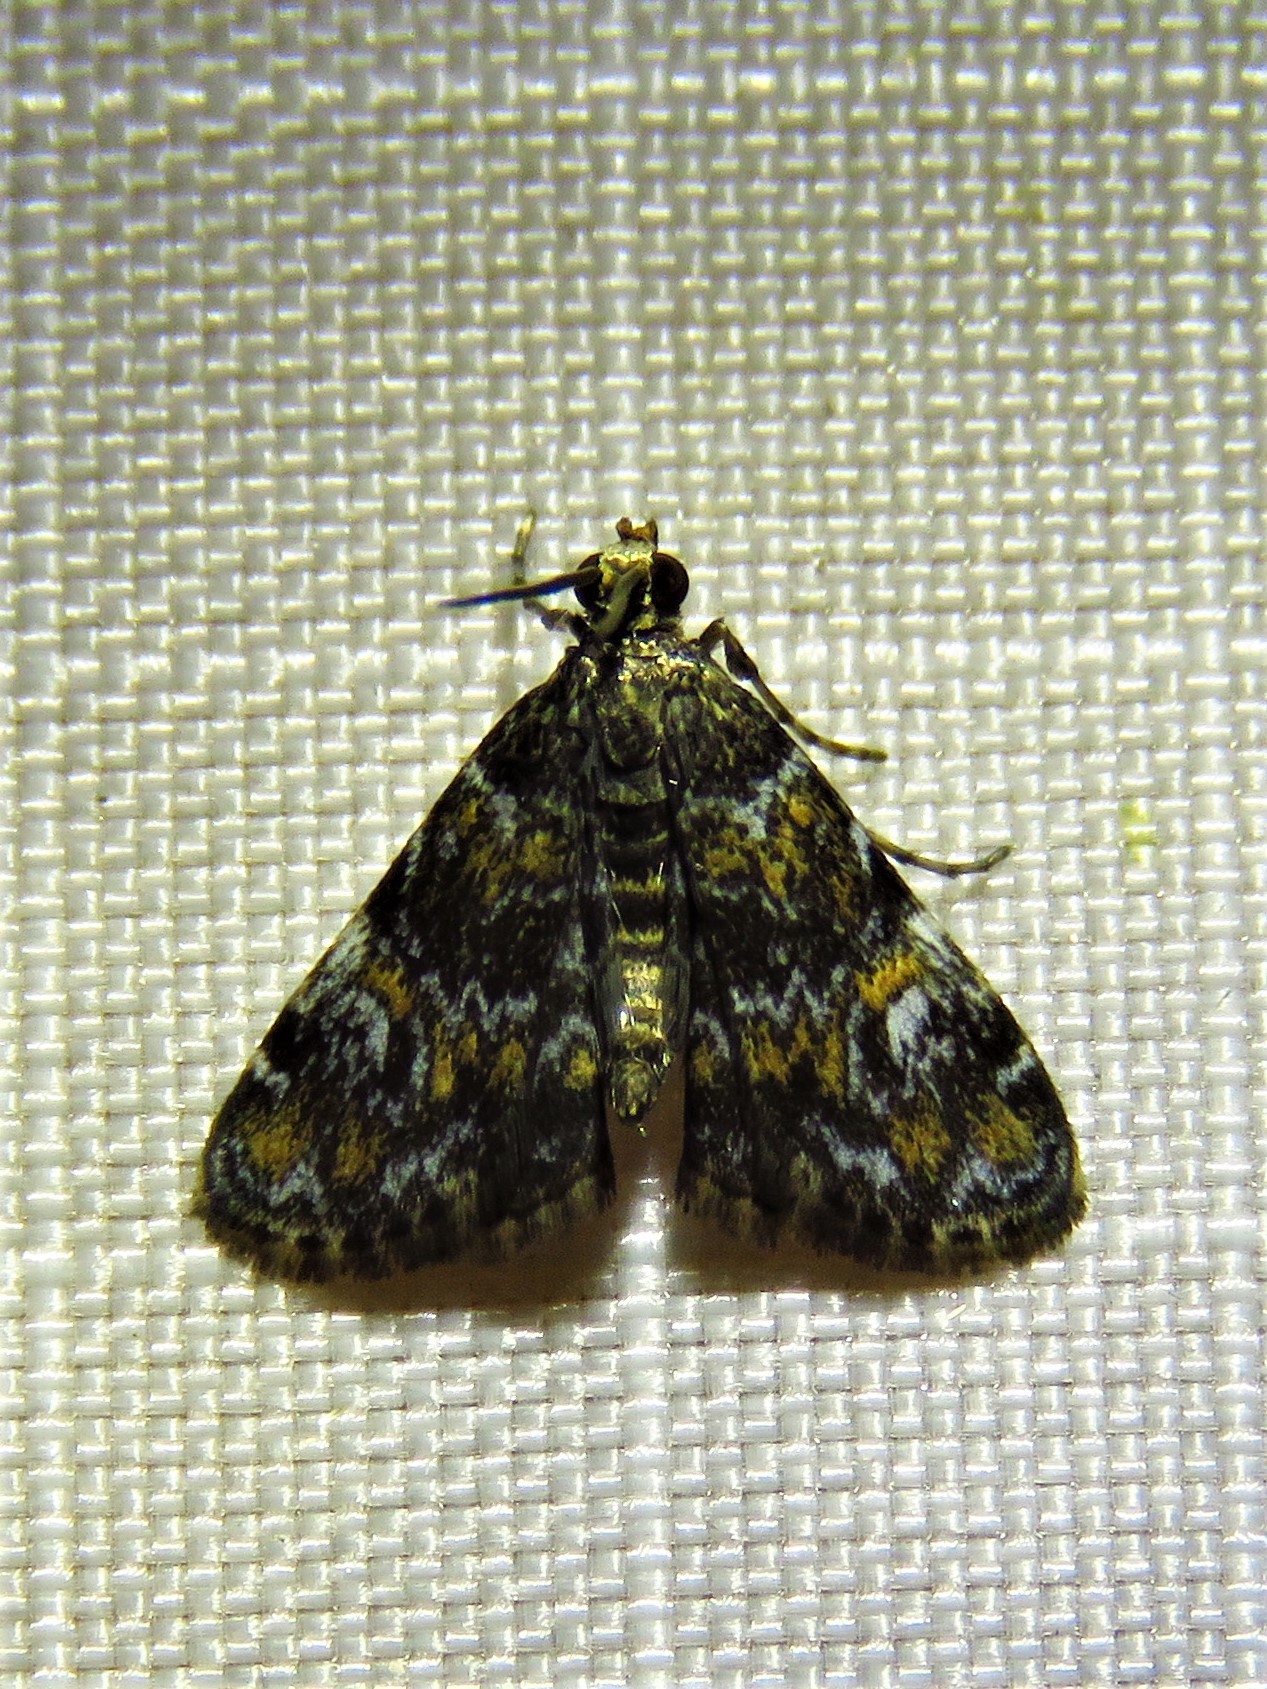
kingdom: Animalia
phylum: Arthropoda
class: Insecta
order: Lepidoptera
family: Crambidae
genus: Elophila
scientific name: Elophila obliteralis
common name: Waterlily leafcutter moth
